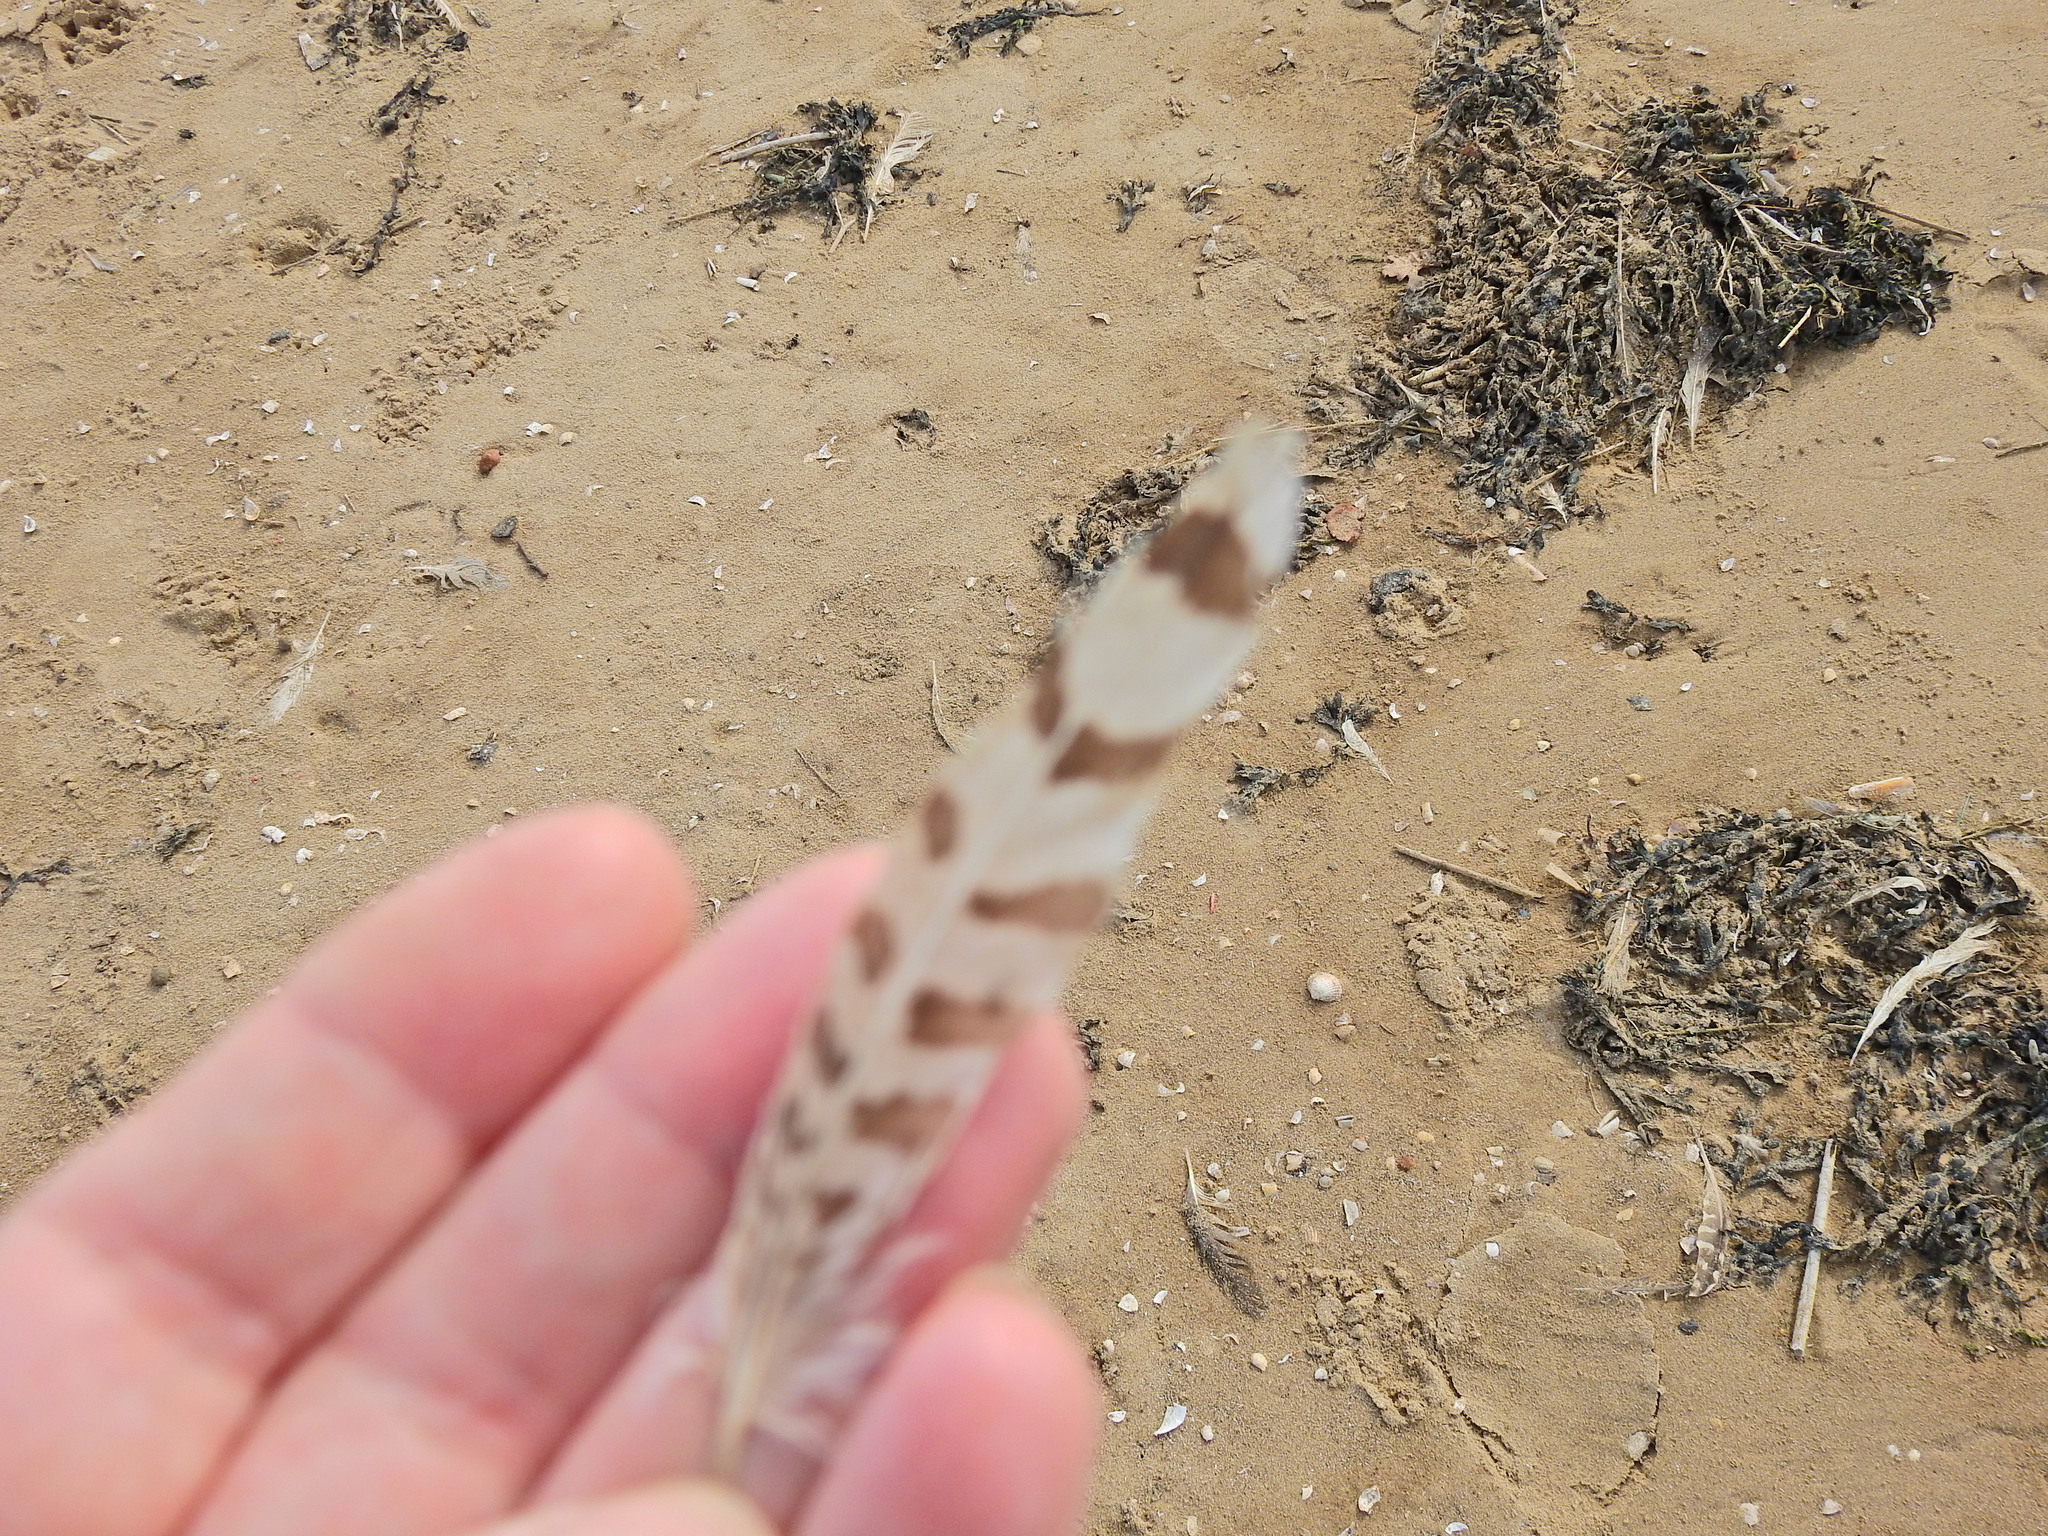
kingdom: Animalia
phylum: Chordata
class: Aves
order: Charadriiformes
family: Scolopacidae
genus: Numenius
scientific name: Numenius arquata
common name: Eurasian curlew
